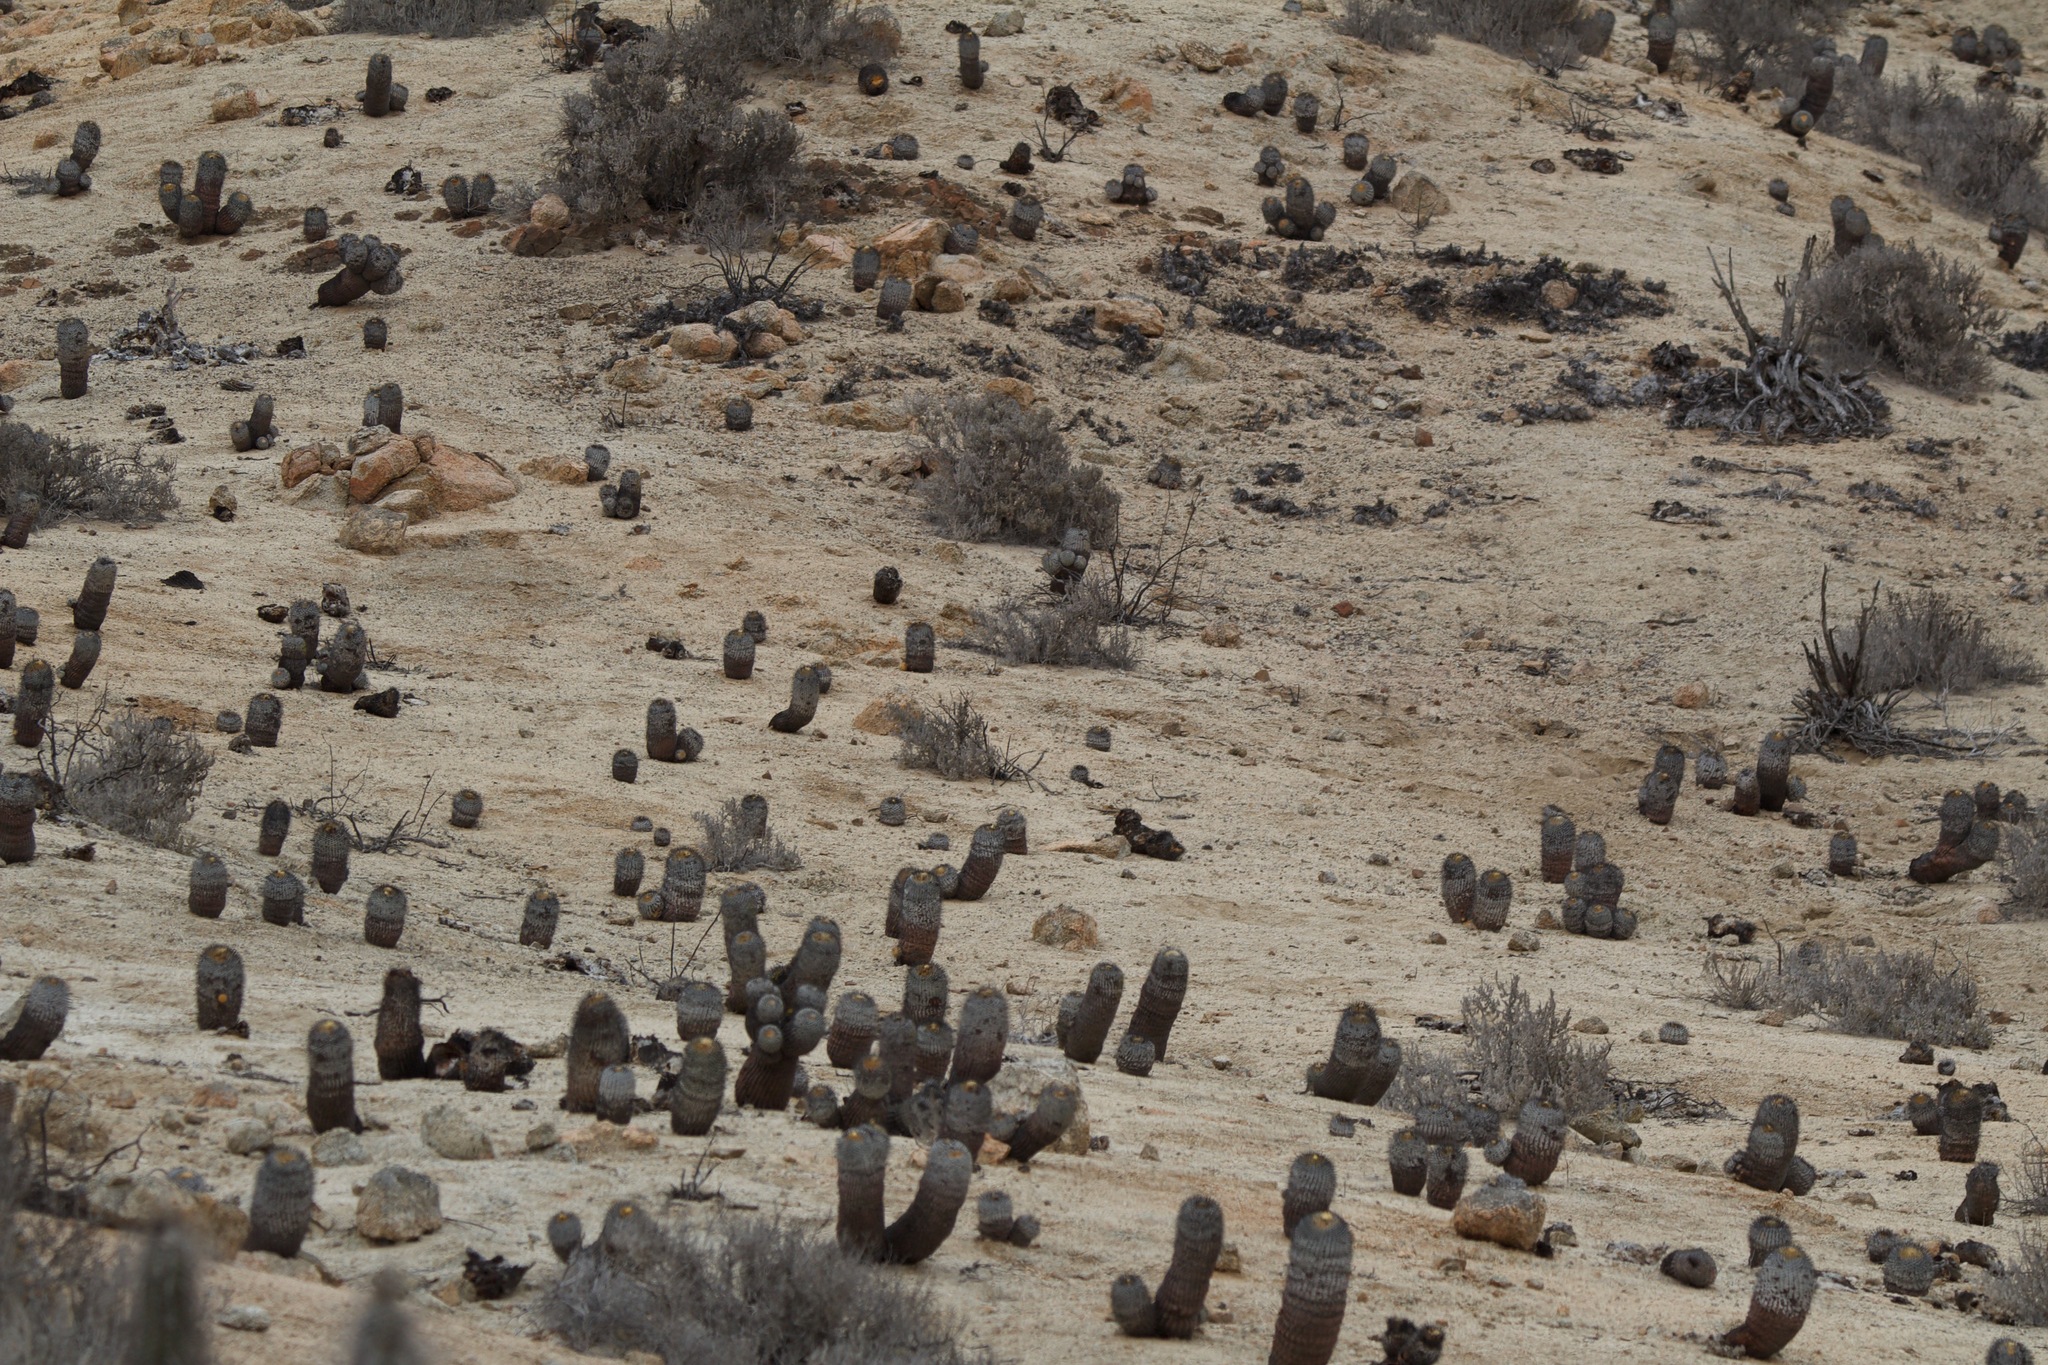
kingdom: Plantae
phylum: Tracheophyta
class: Magnoliopsida
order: Caryophyllales
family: Cactaceae
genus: Copiapoa
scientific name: Copiapoa cinerea
